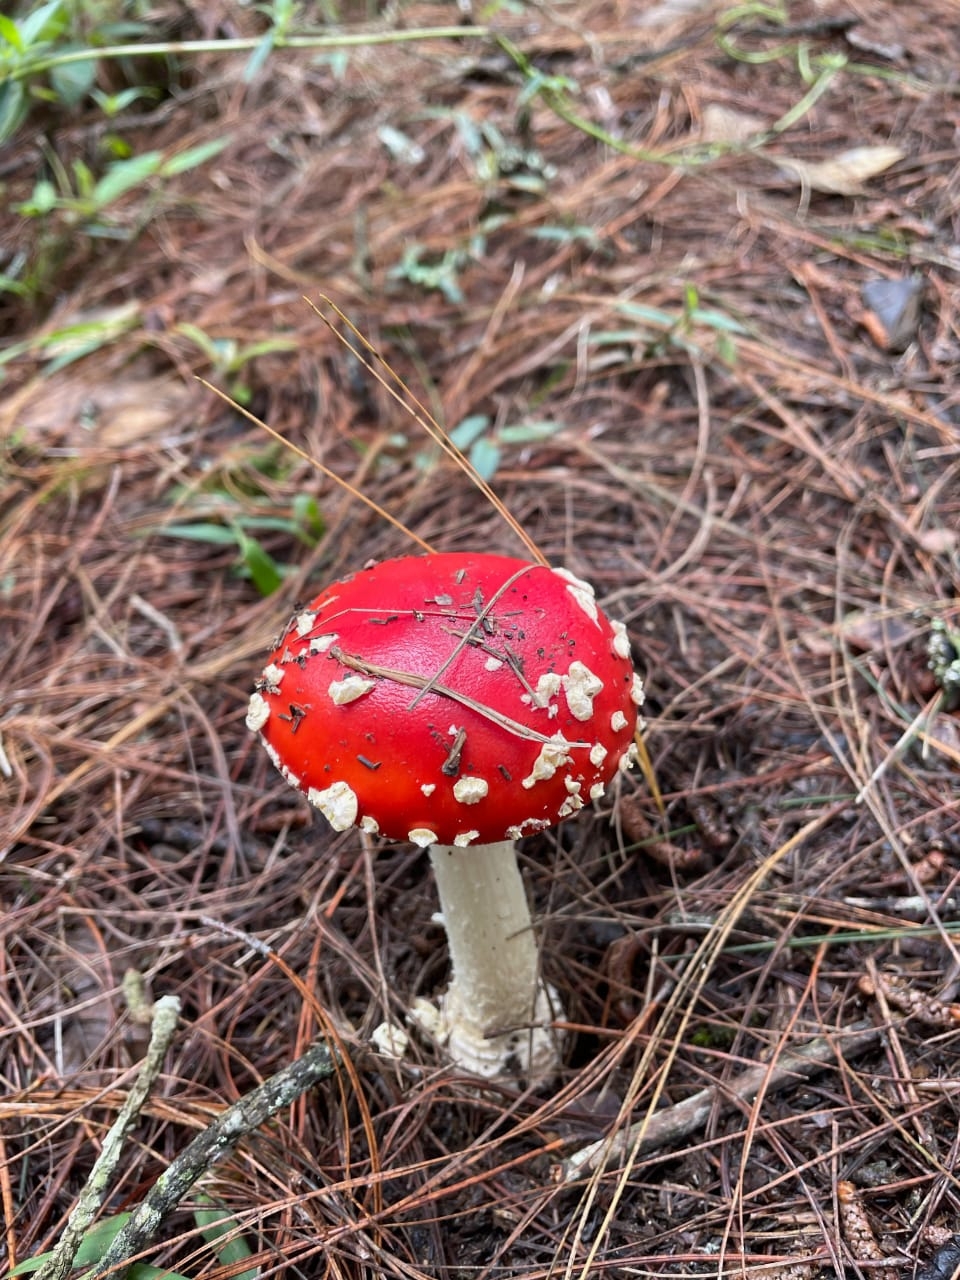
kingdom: Fungi
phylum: Basidiomycota
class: Agaricomycetes
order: Agaricales
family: Amanitaceae
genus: Amanita
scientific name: Amanita muscaria
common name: Fly agaric
